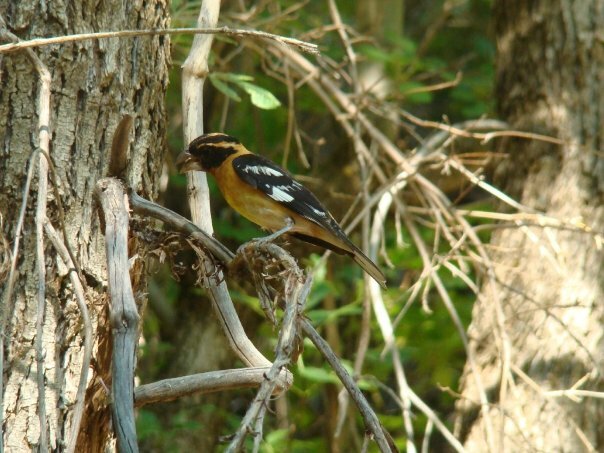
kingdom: Animalia
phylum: Chordata
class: Aves
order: Passeriformes
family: Cardinalidae
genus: Pheucticus
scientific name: Pheucticus melanocephalus
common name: Black-headed grosbeak
